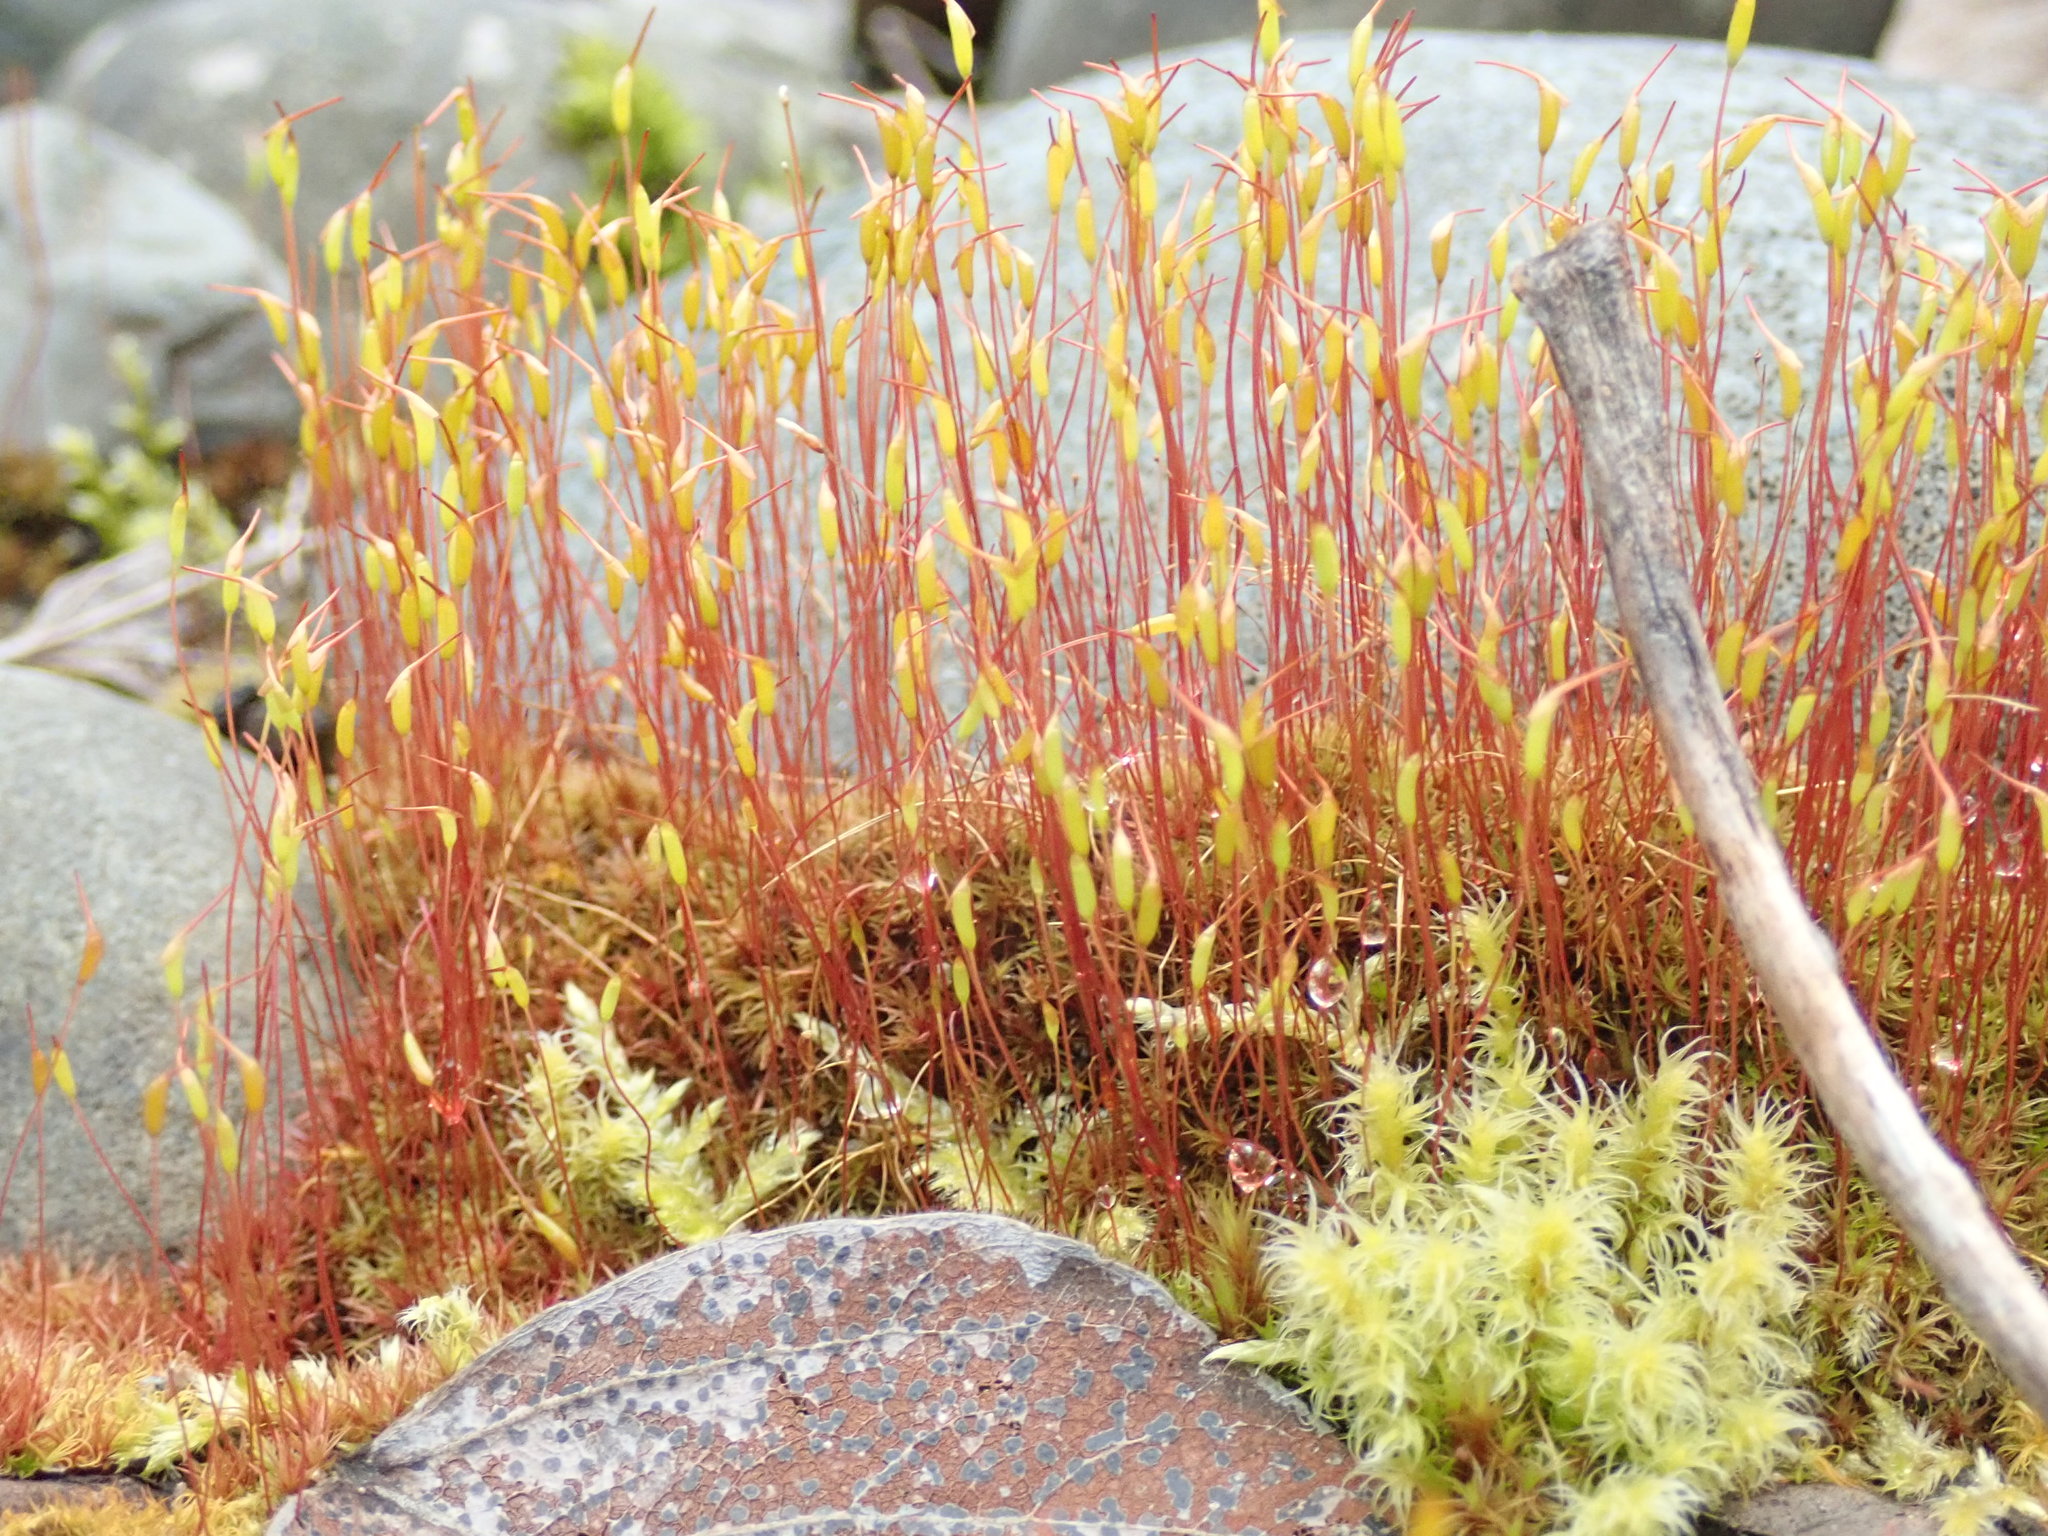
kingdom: Plantae
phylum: Bryophyta
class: Bryopsida
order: Dicranales
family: Ditrichaceae
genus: Ceratodon
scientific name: Ceratodon purpureus
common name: Redshank
